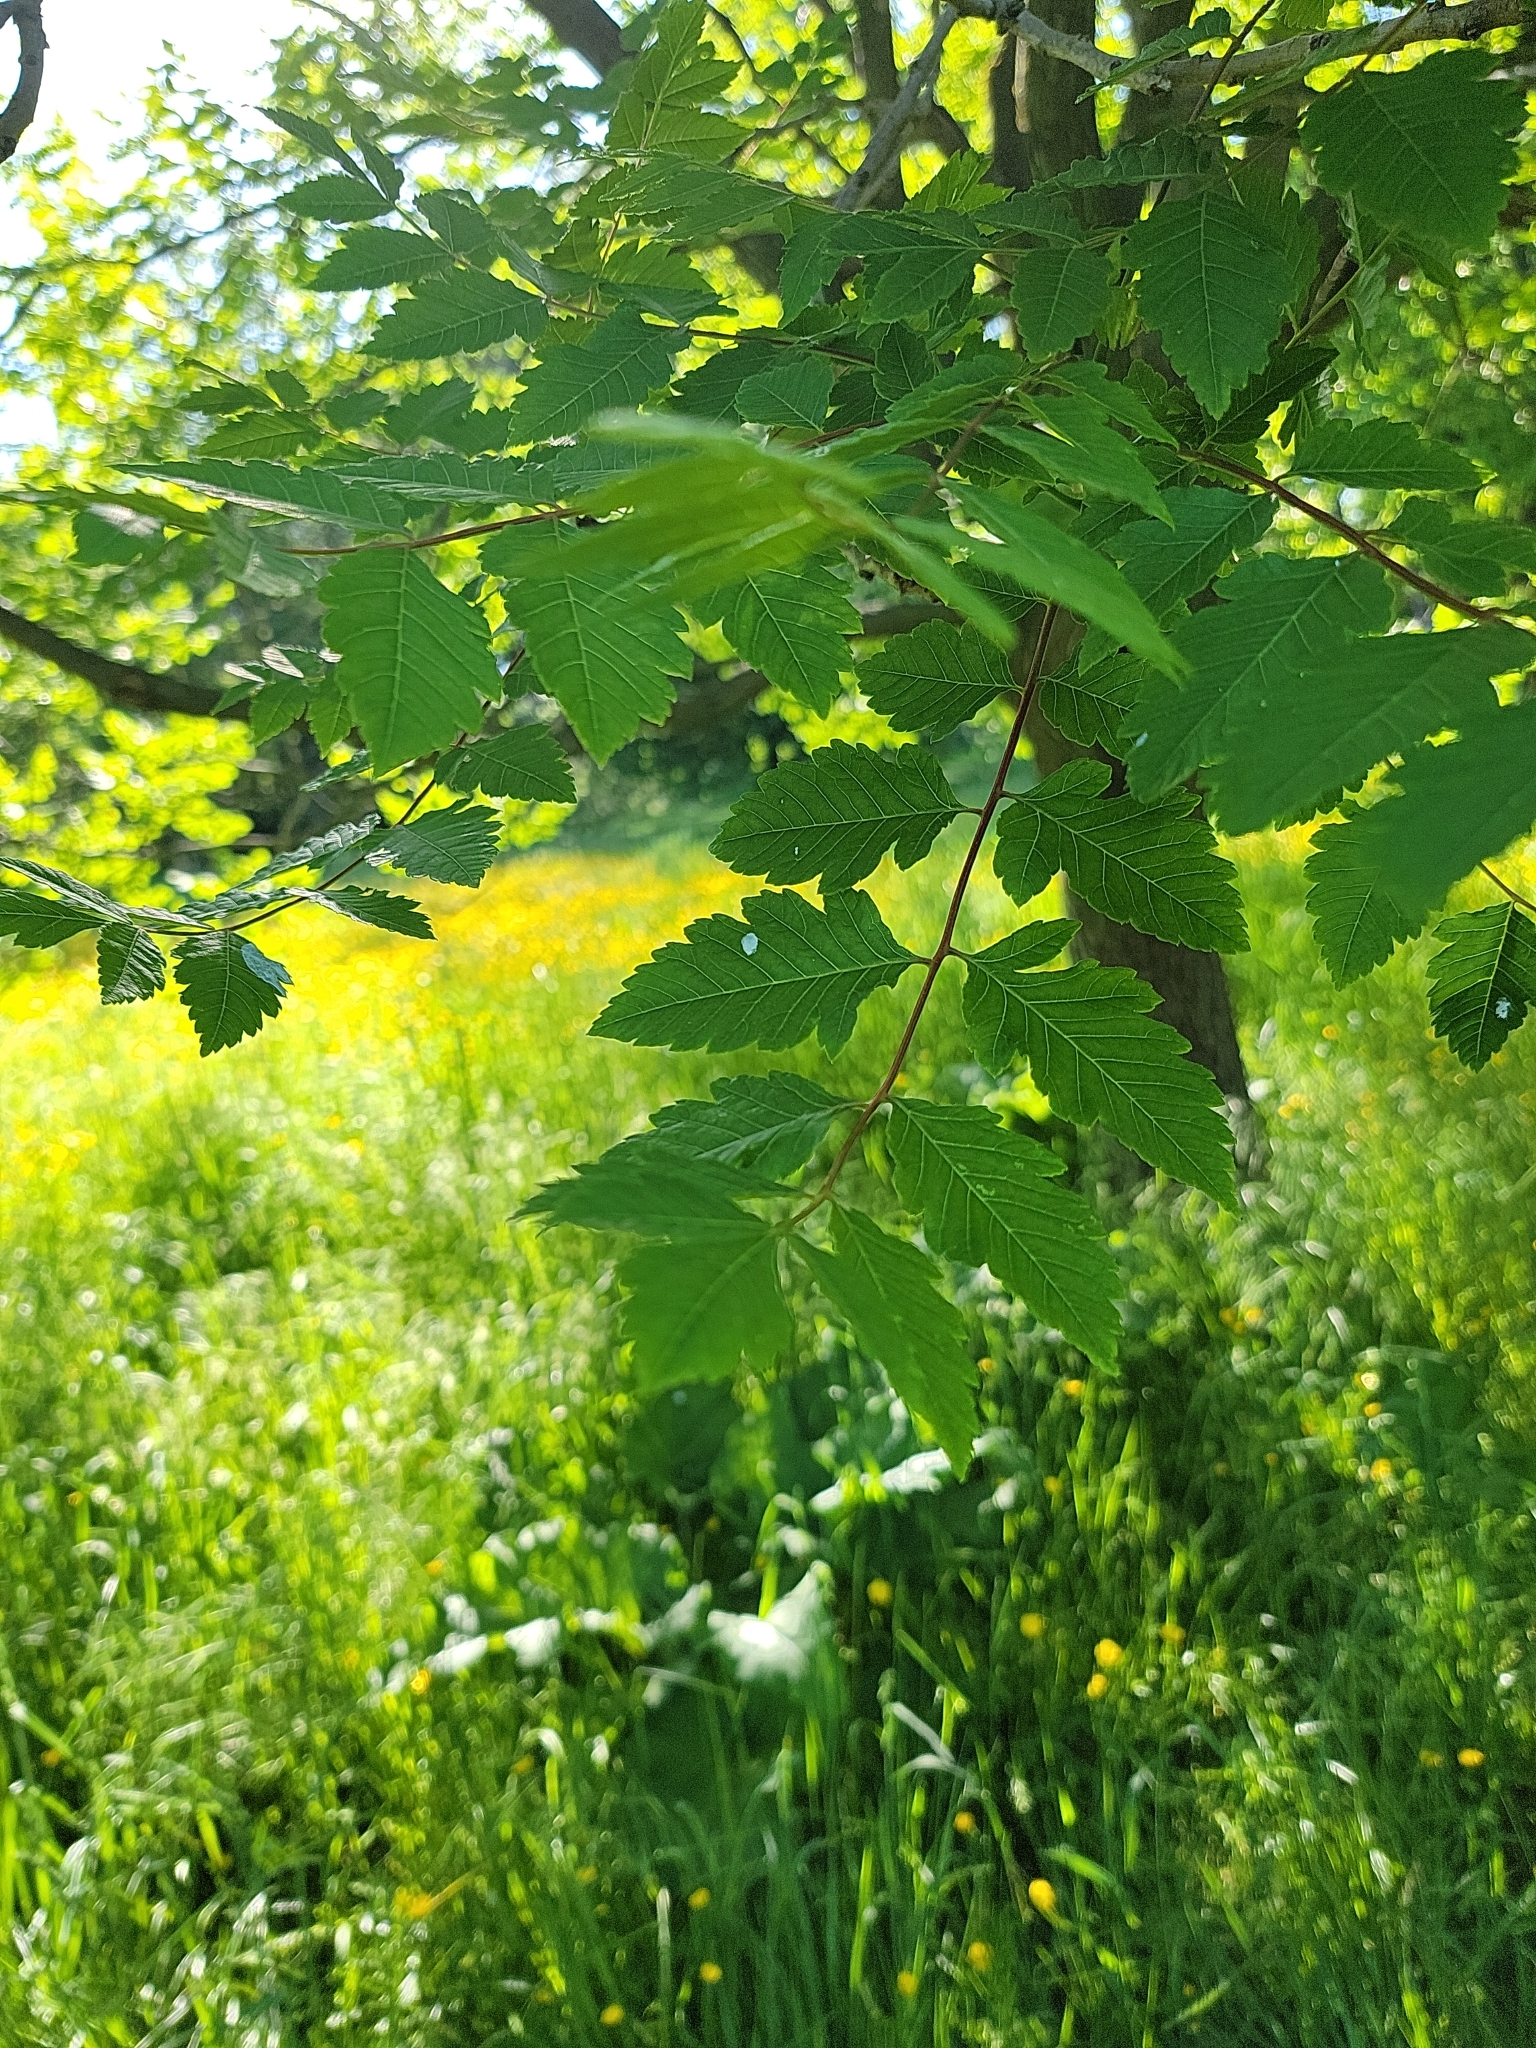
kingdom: Plantae
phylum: Tracheophyta
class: Magnoliopsida
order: Sapindales
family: Sapindaceae
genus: Koelreuteria
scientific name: Koelreuteria paniculata
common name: Pride-of-india
